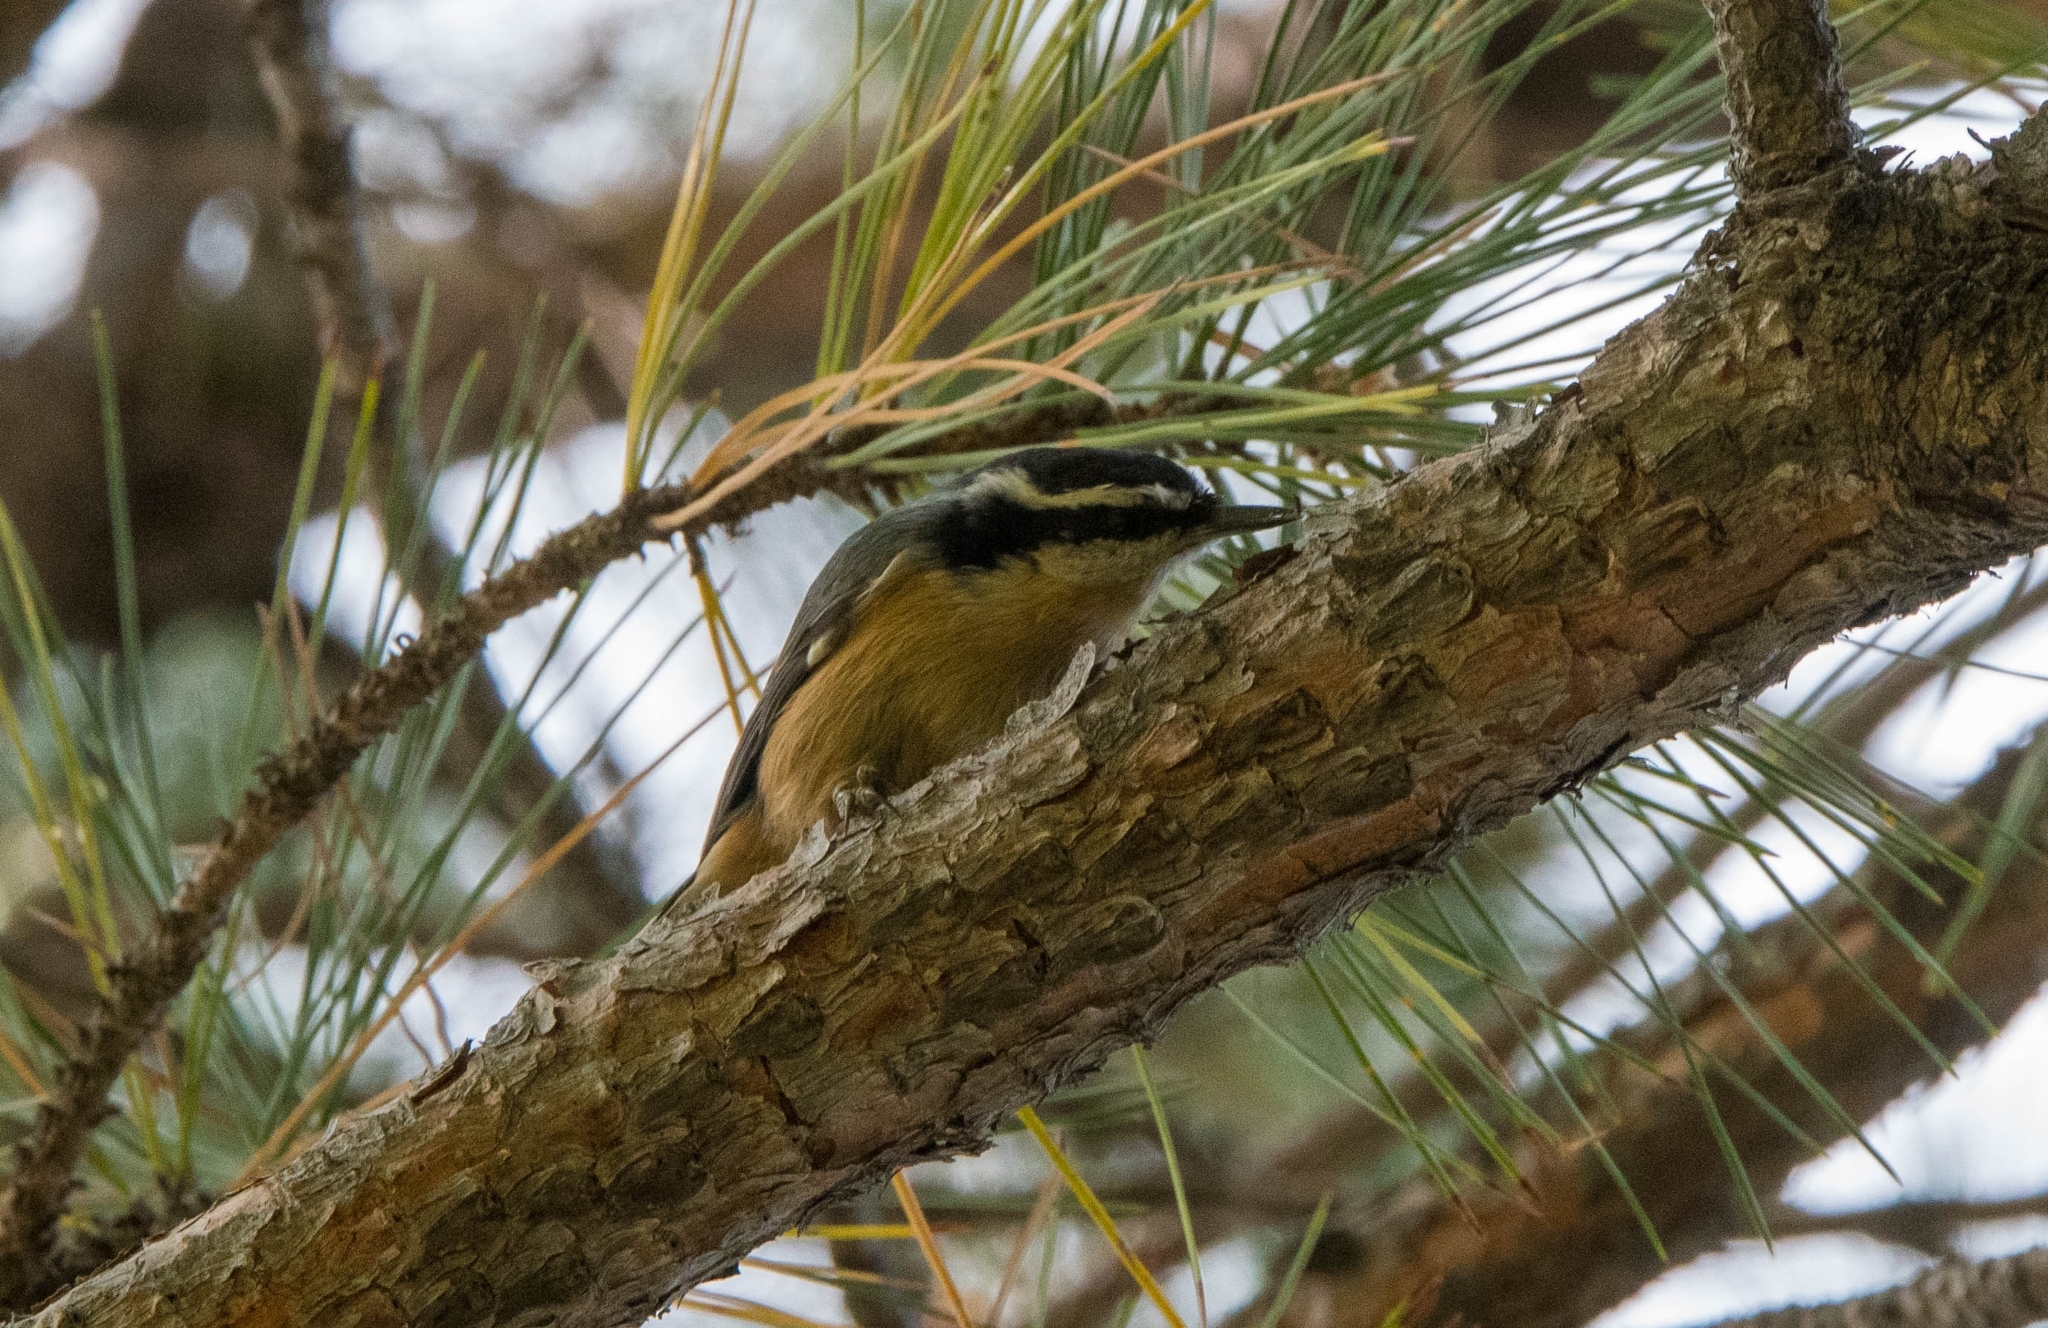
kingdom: Animalia
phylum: Chordata
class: Aves
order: Passeriformes
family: Sittidae
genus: Sitta
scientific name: Sitta canadensis
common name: Red-breasted nuthatch
